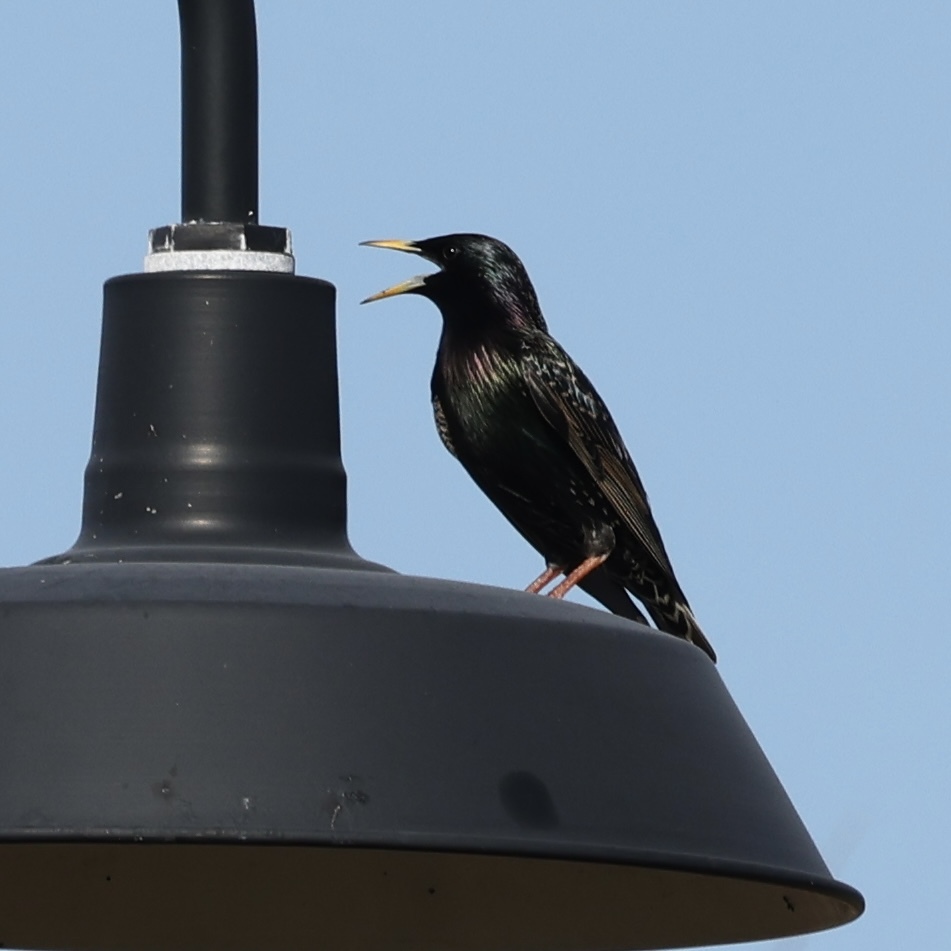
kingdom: Animalia
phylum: Chordata
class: Aves
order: Passeriformes
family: Sturnidae
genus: Sturnus
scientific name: Sturnus vulgaris
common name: Common starling
